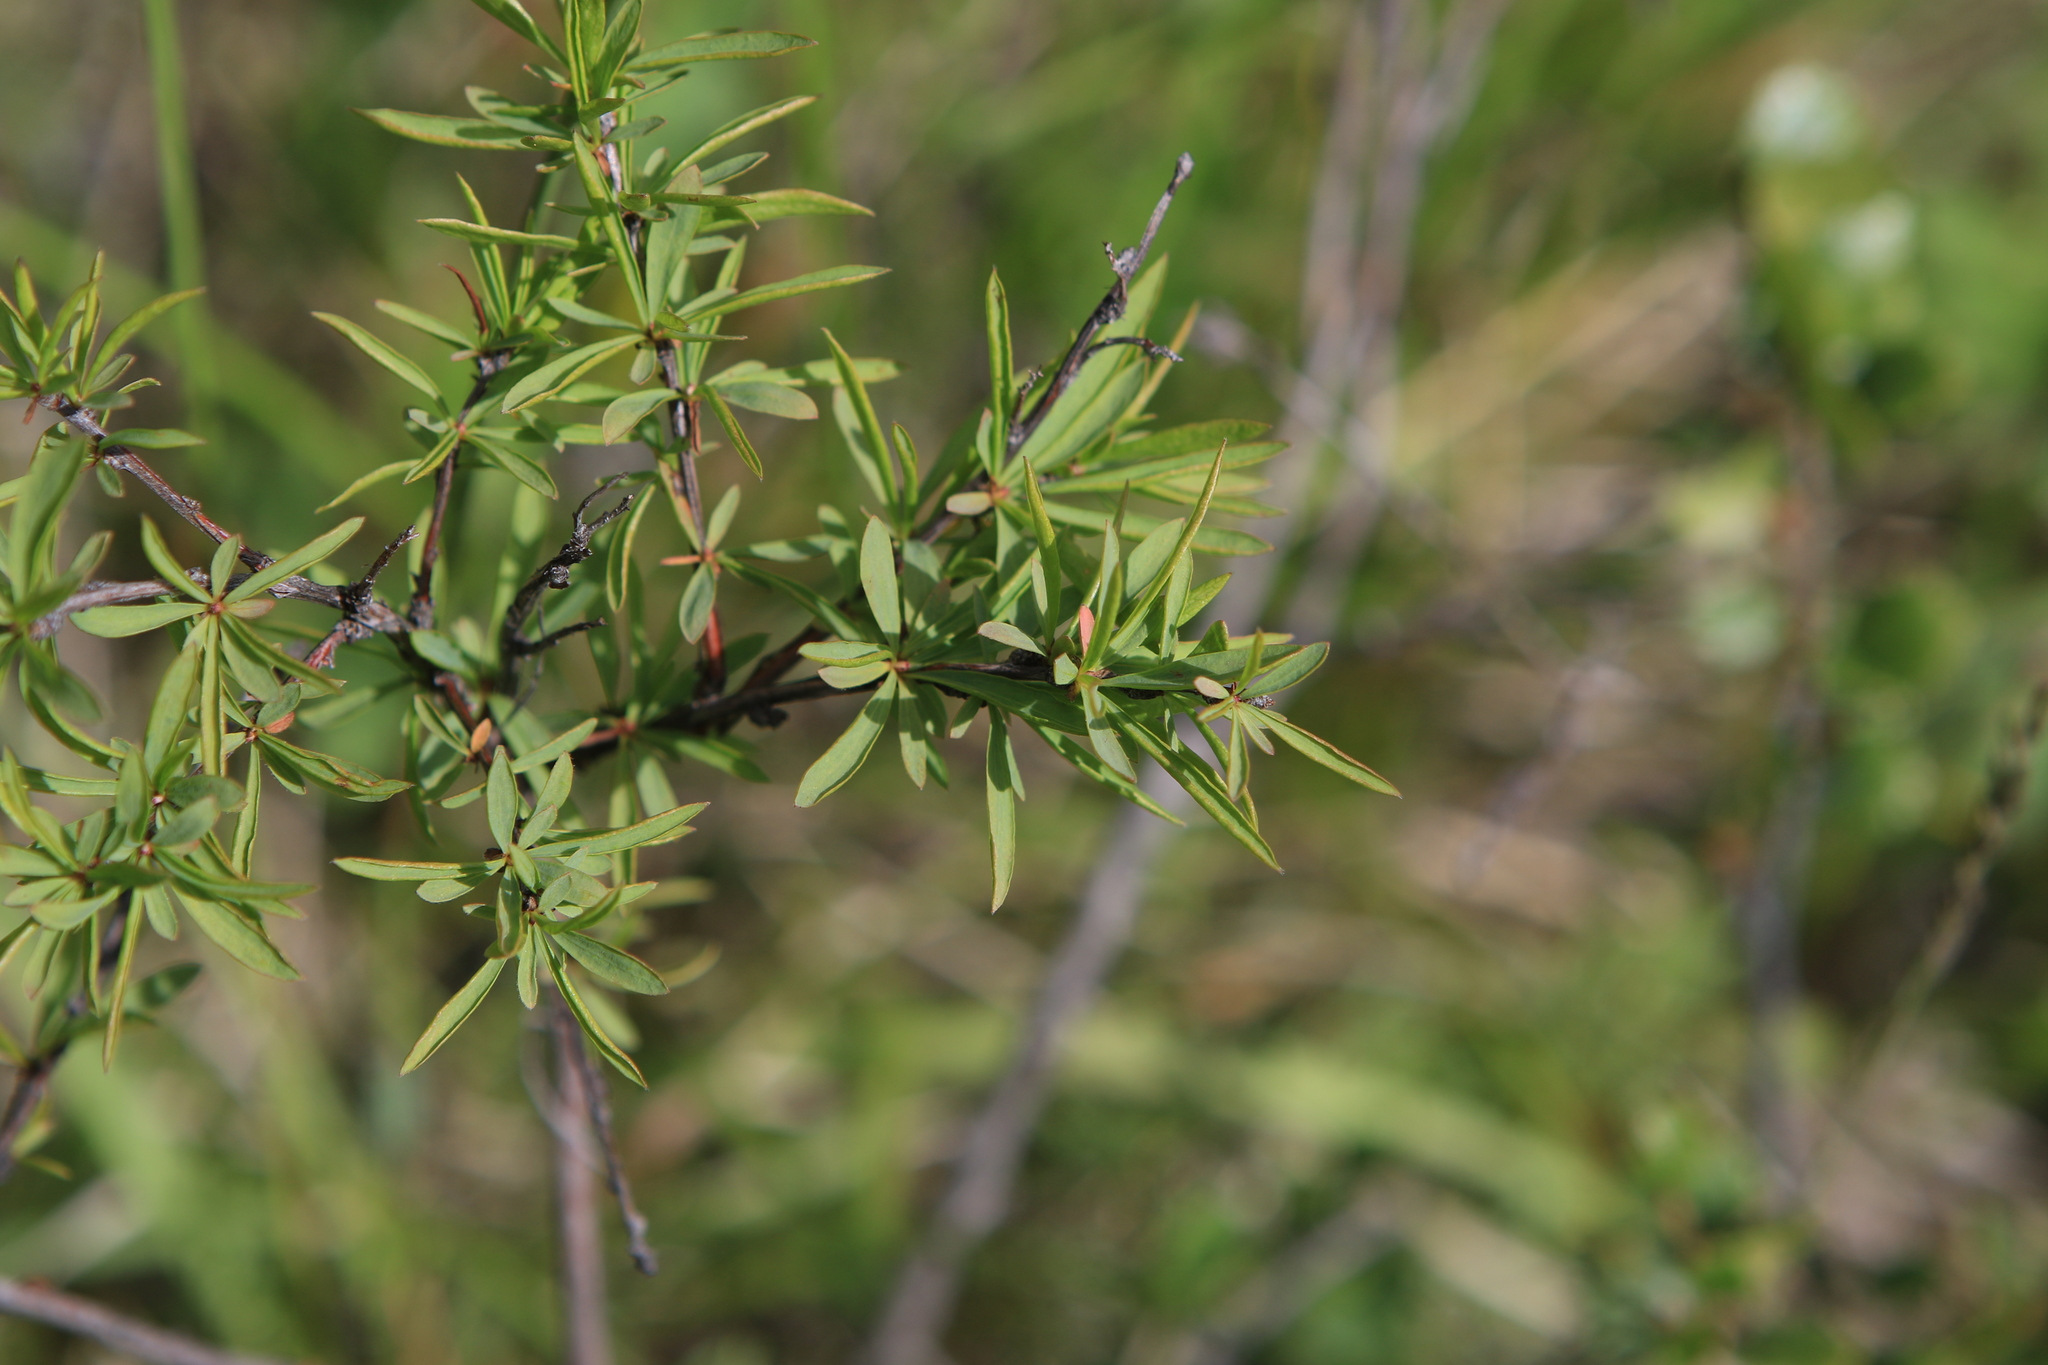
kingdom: Plantae
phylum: Tracheophyta
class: Magnoliopsida
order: Rosales
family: Rosaceae
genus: Spiraea
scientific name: Spiraea alpina
